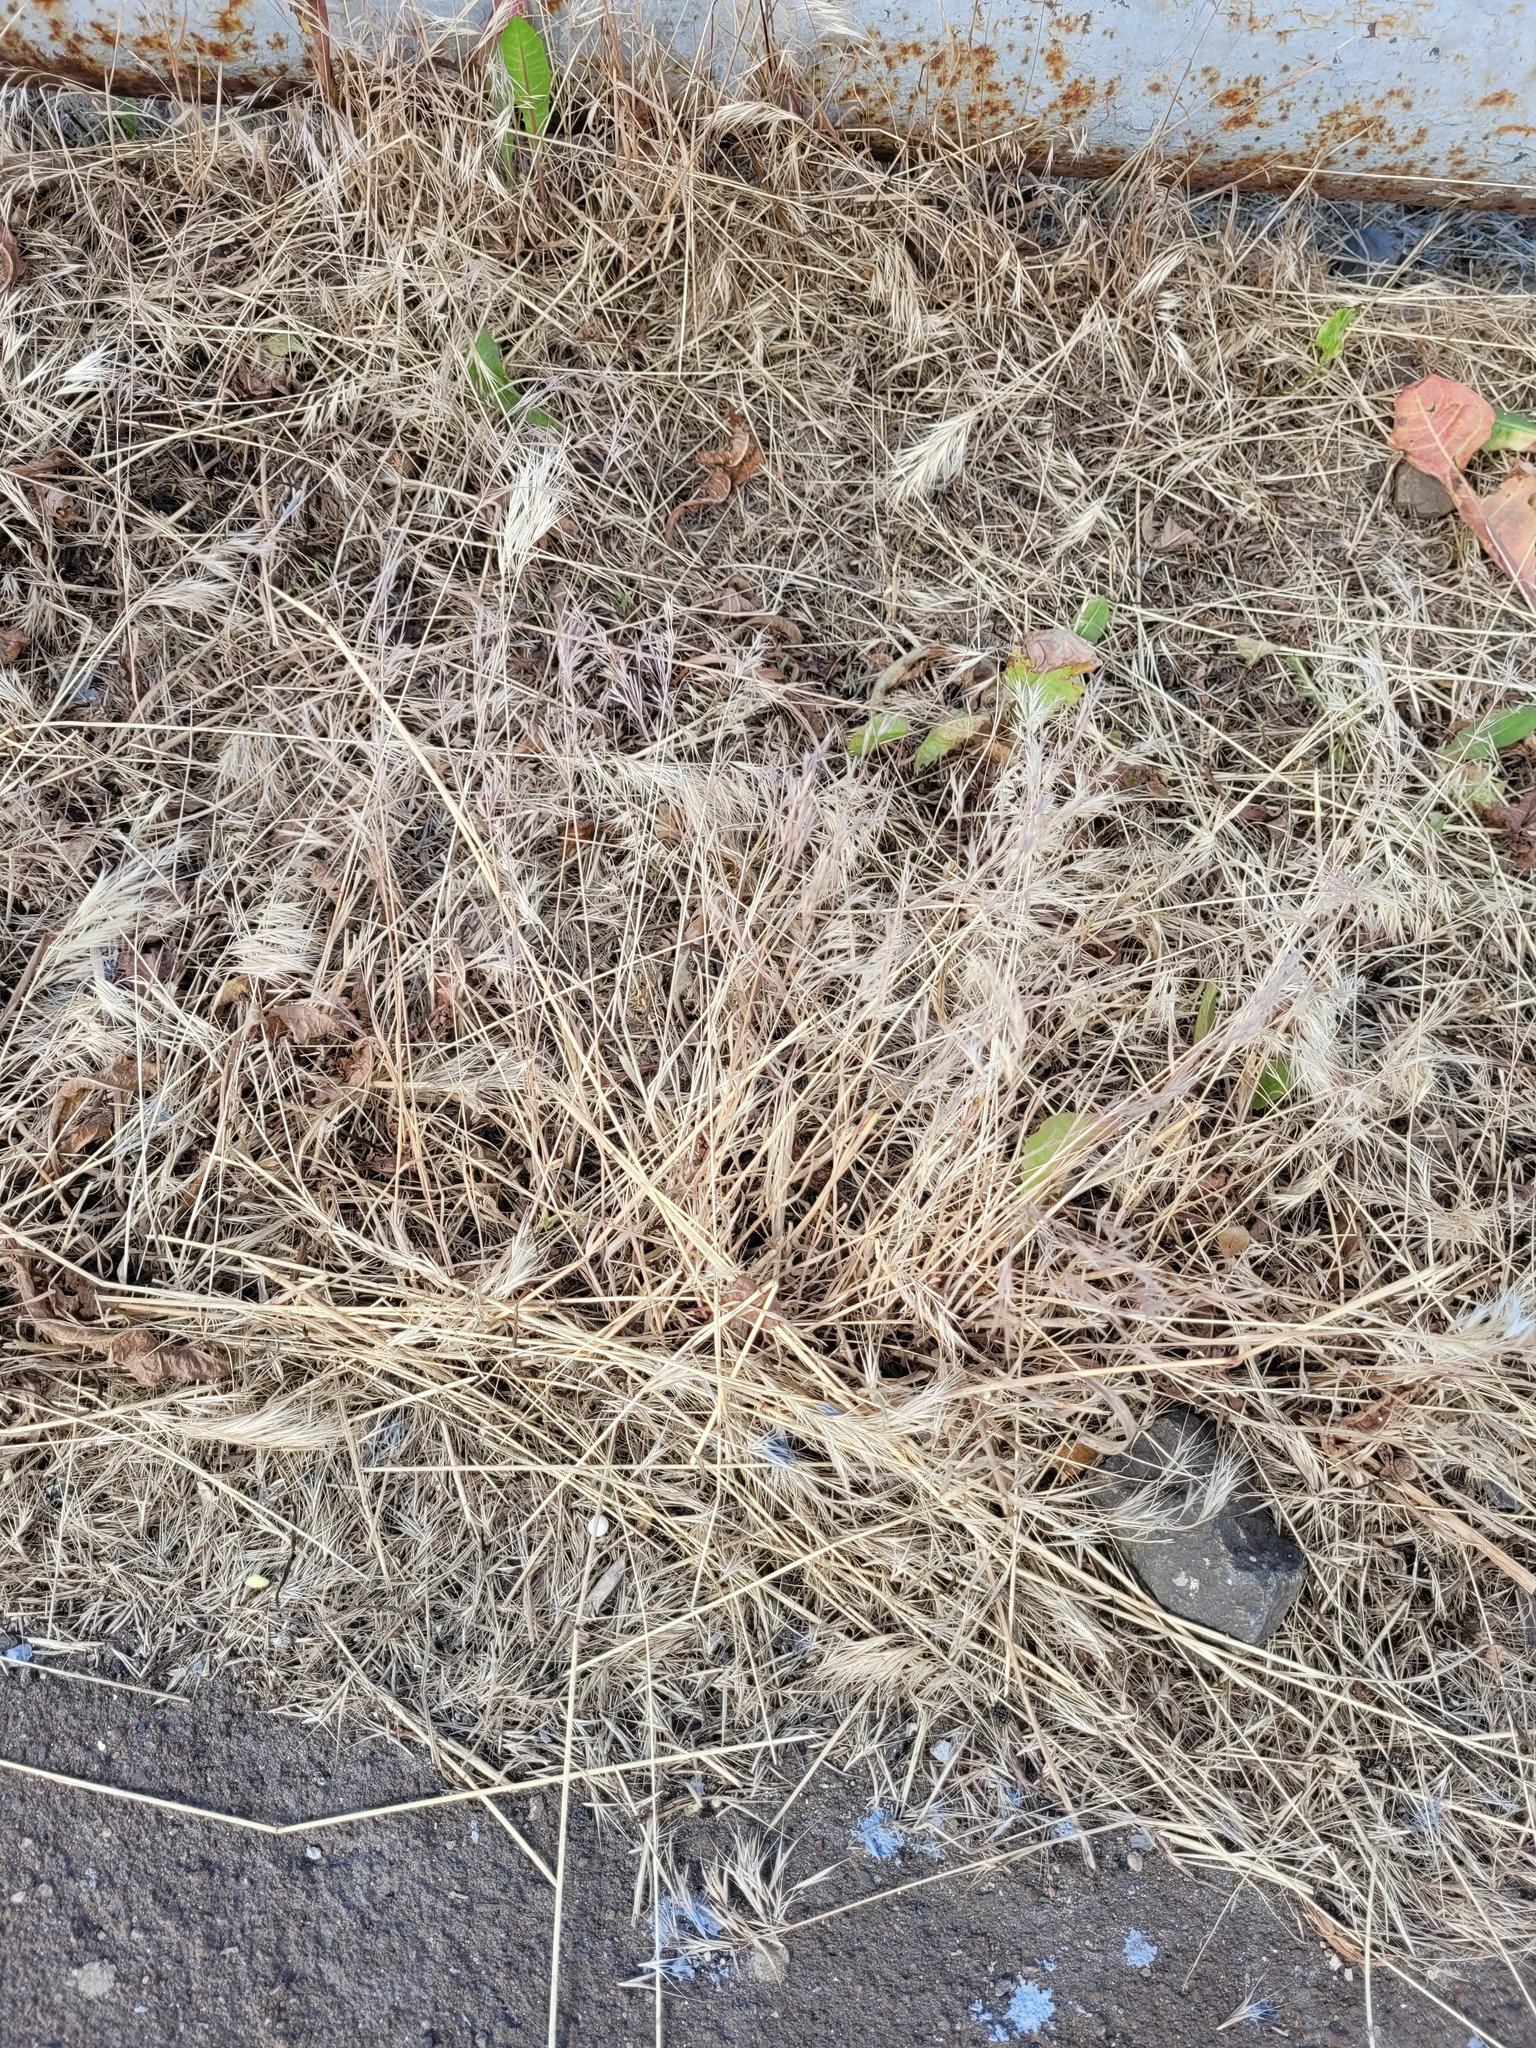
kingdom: Plantae
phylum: Tracheophyta
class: Liliopsida
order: Poales
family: Poaceae
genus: Bromus
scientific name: Bromus tectorum
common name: Cheatgrass
